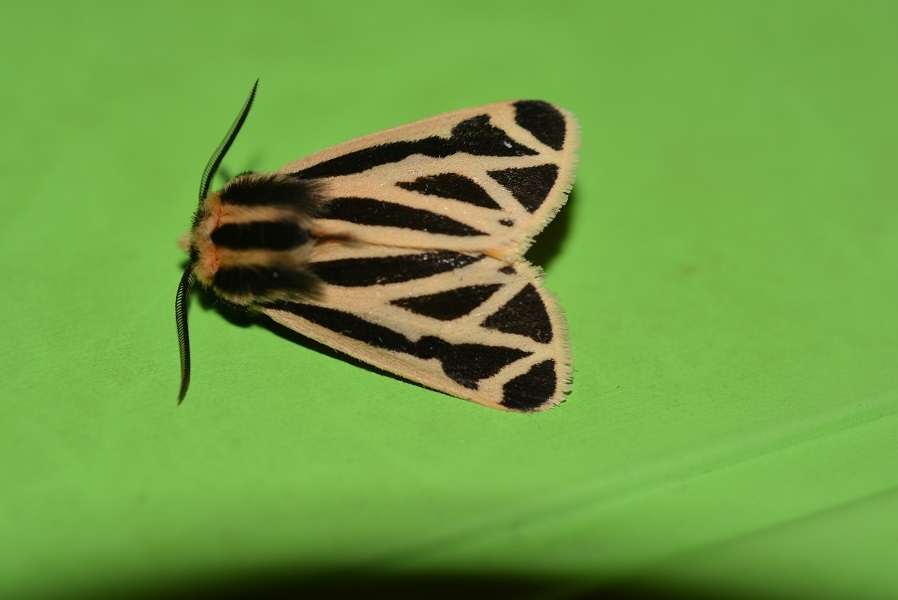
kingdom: Animalia
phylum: Arthropoda
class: Insecta
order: Lepidoptera
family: Erebidae
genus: Apantesis
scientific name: Apantesis phalerata
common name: Harnessed tiger moth
